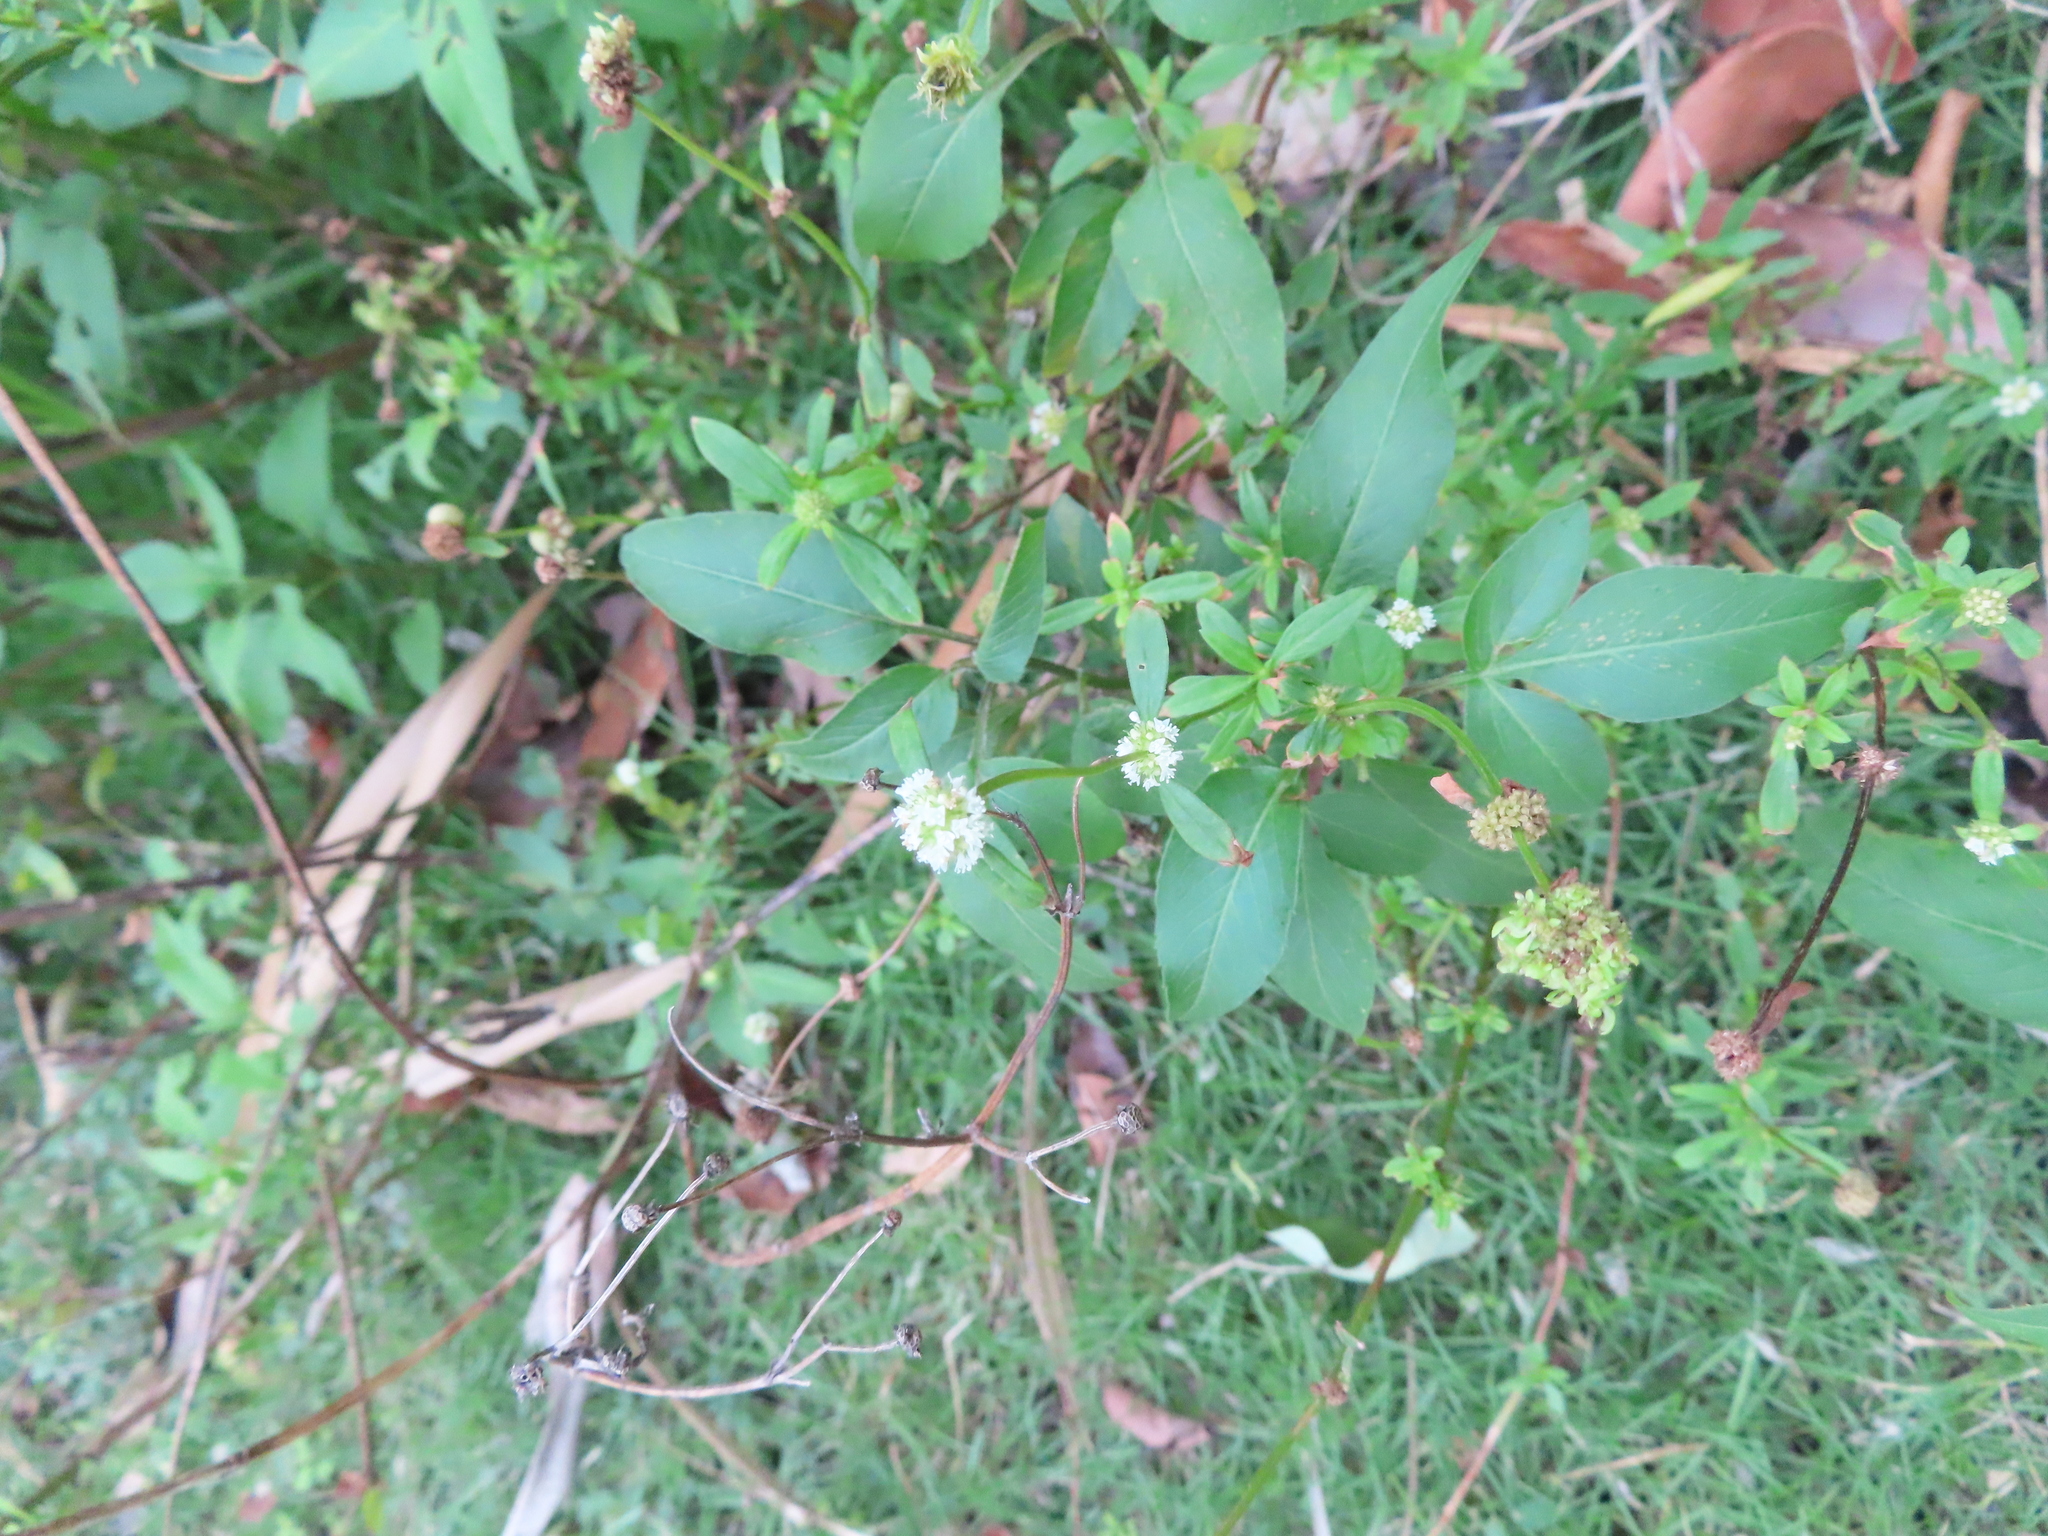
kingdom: Plantae
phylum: Tracheophyta
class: Magnoliopsida
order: Gentianales
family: Rubiaceae
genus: Spermacoce
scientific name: Spermacoce verticillata
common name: Shrubby false buttonweed
